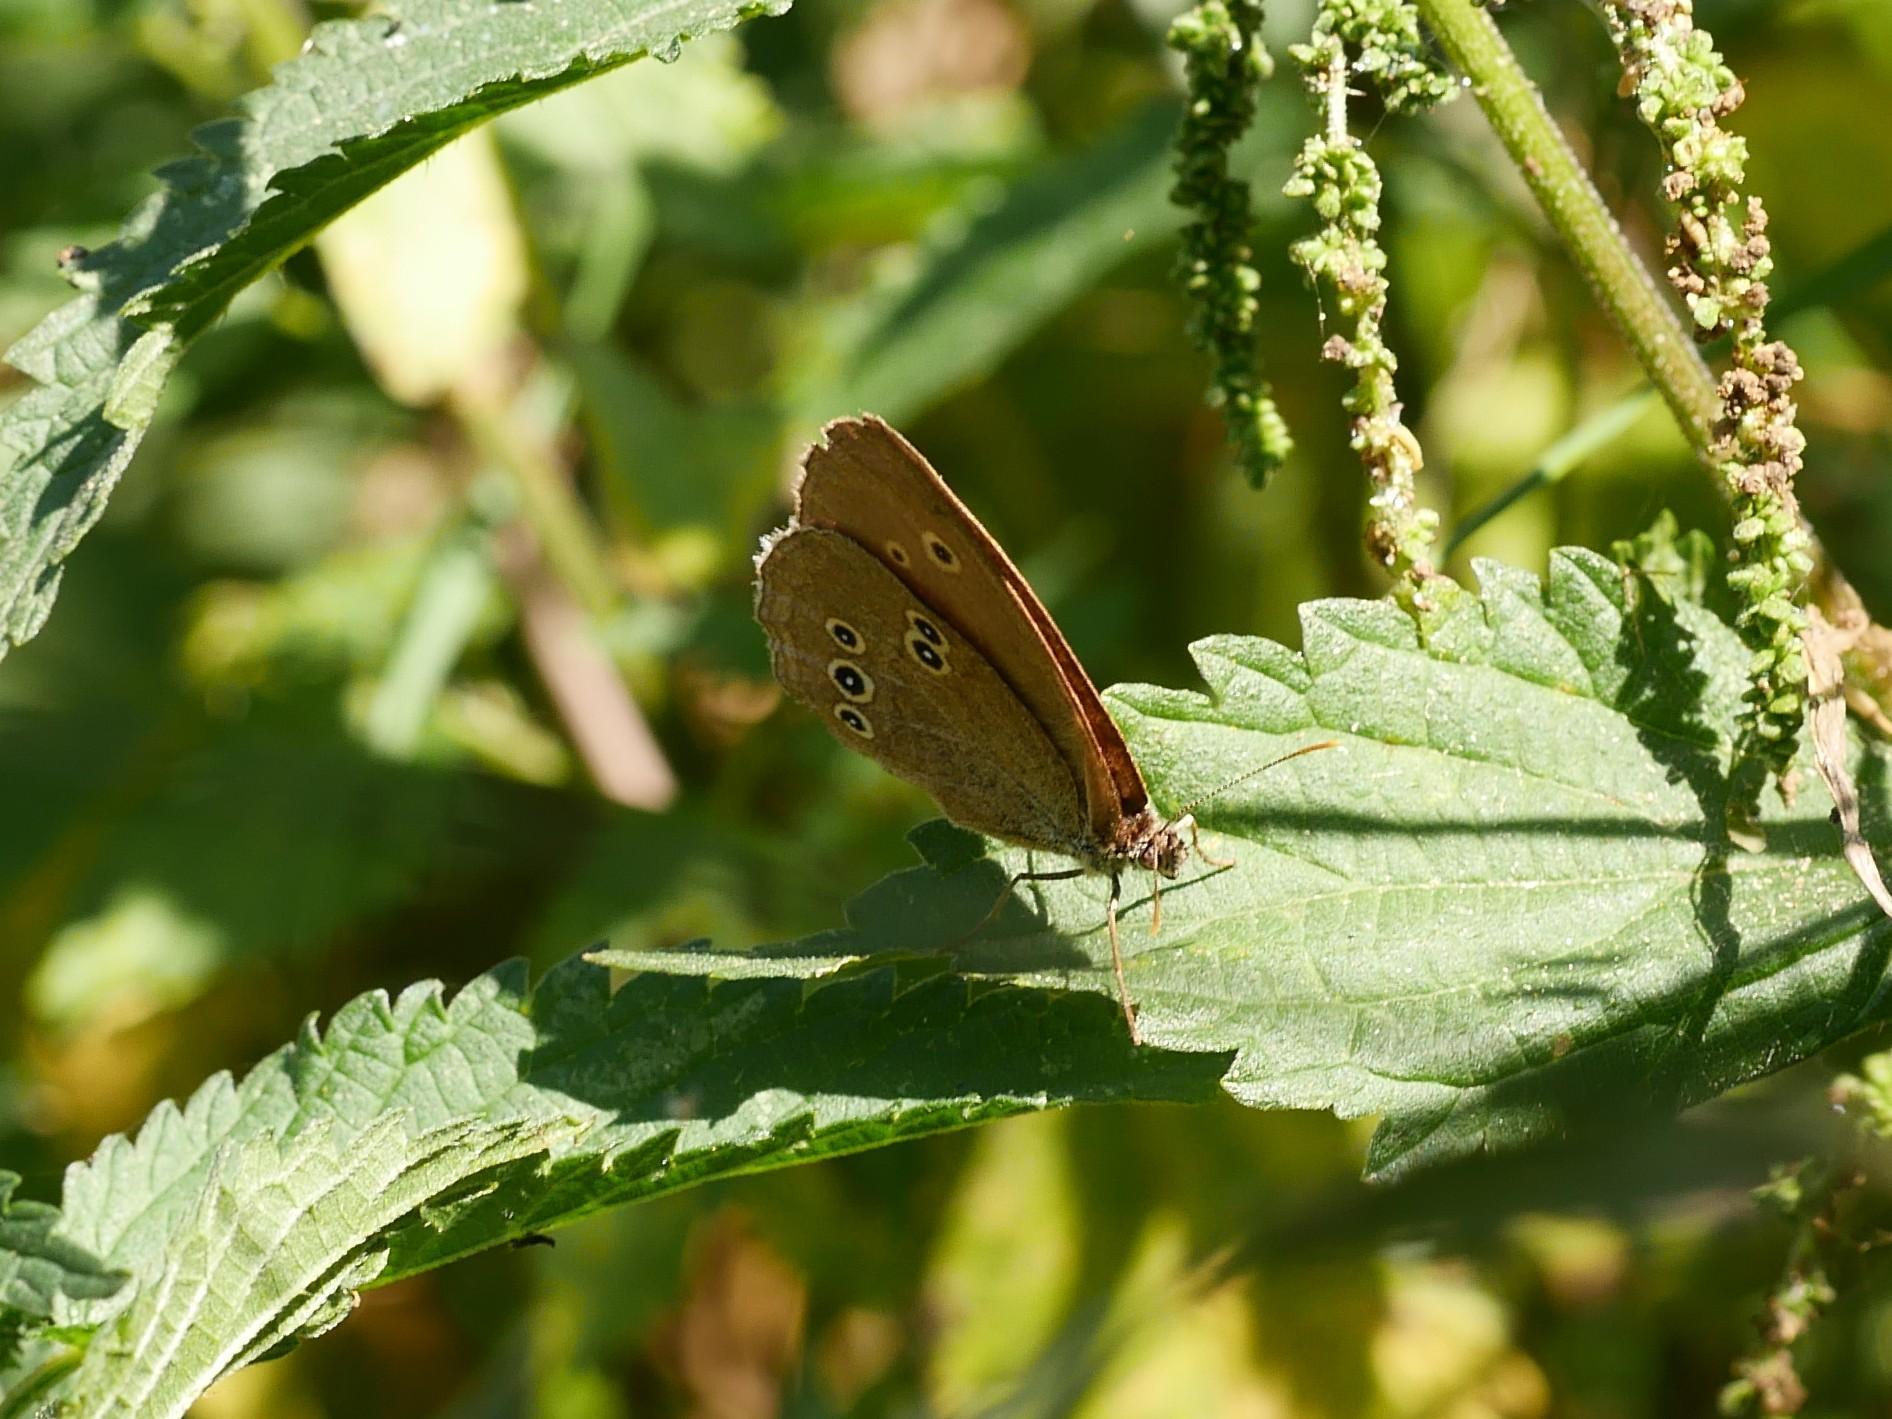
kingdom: Animalia
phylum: Arthropoda
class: Insecta
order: Lepidoptera
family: Nymphalidae
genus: Aphantopus
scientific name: Aphantopus hyperantus
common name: Ringlet
